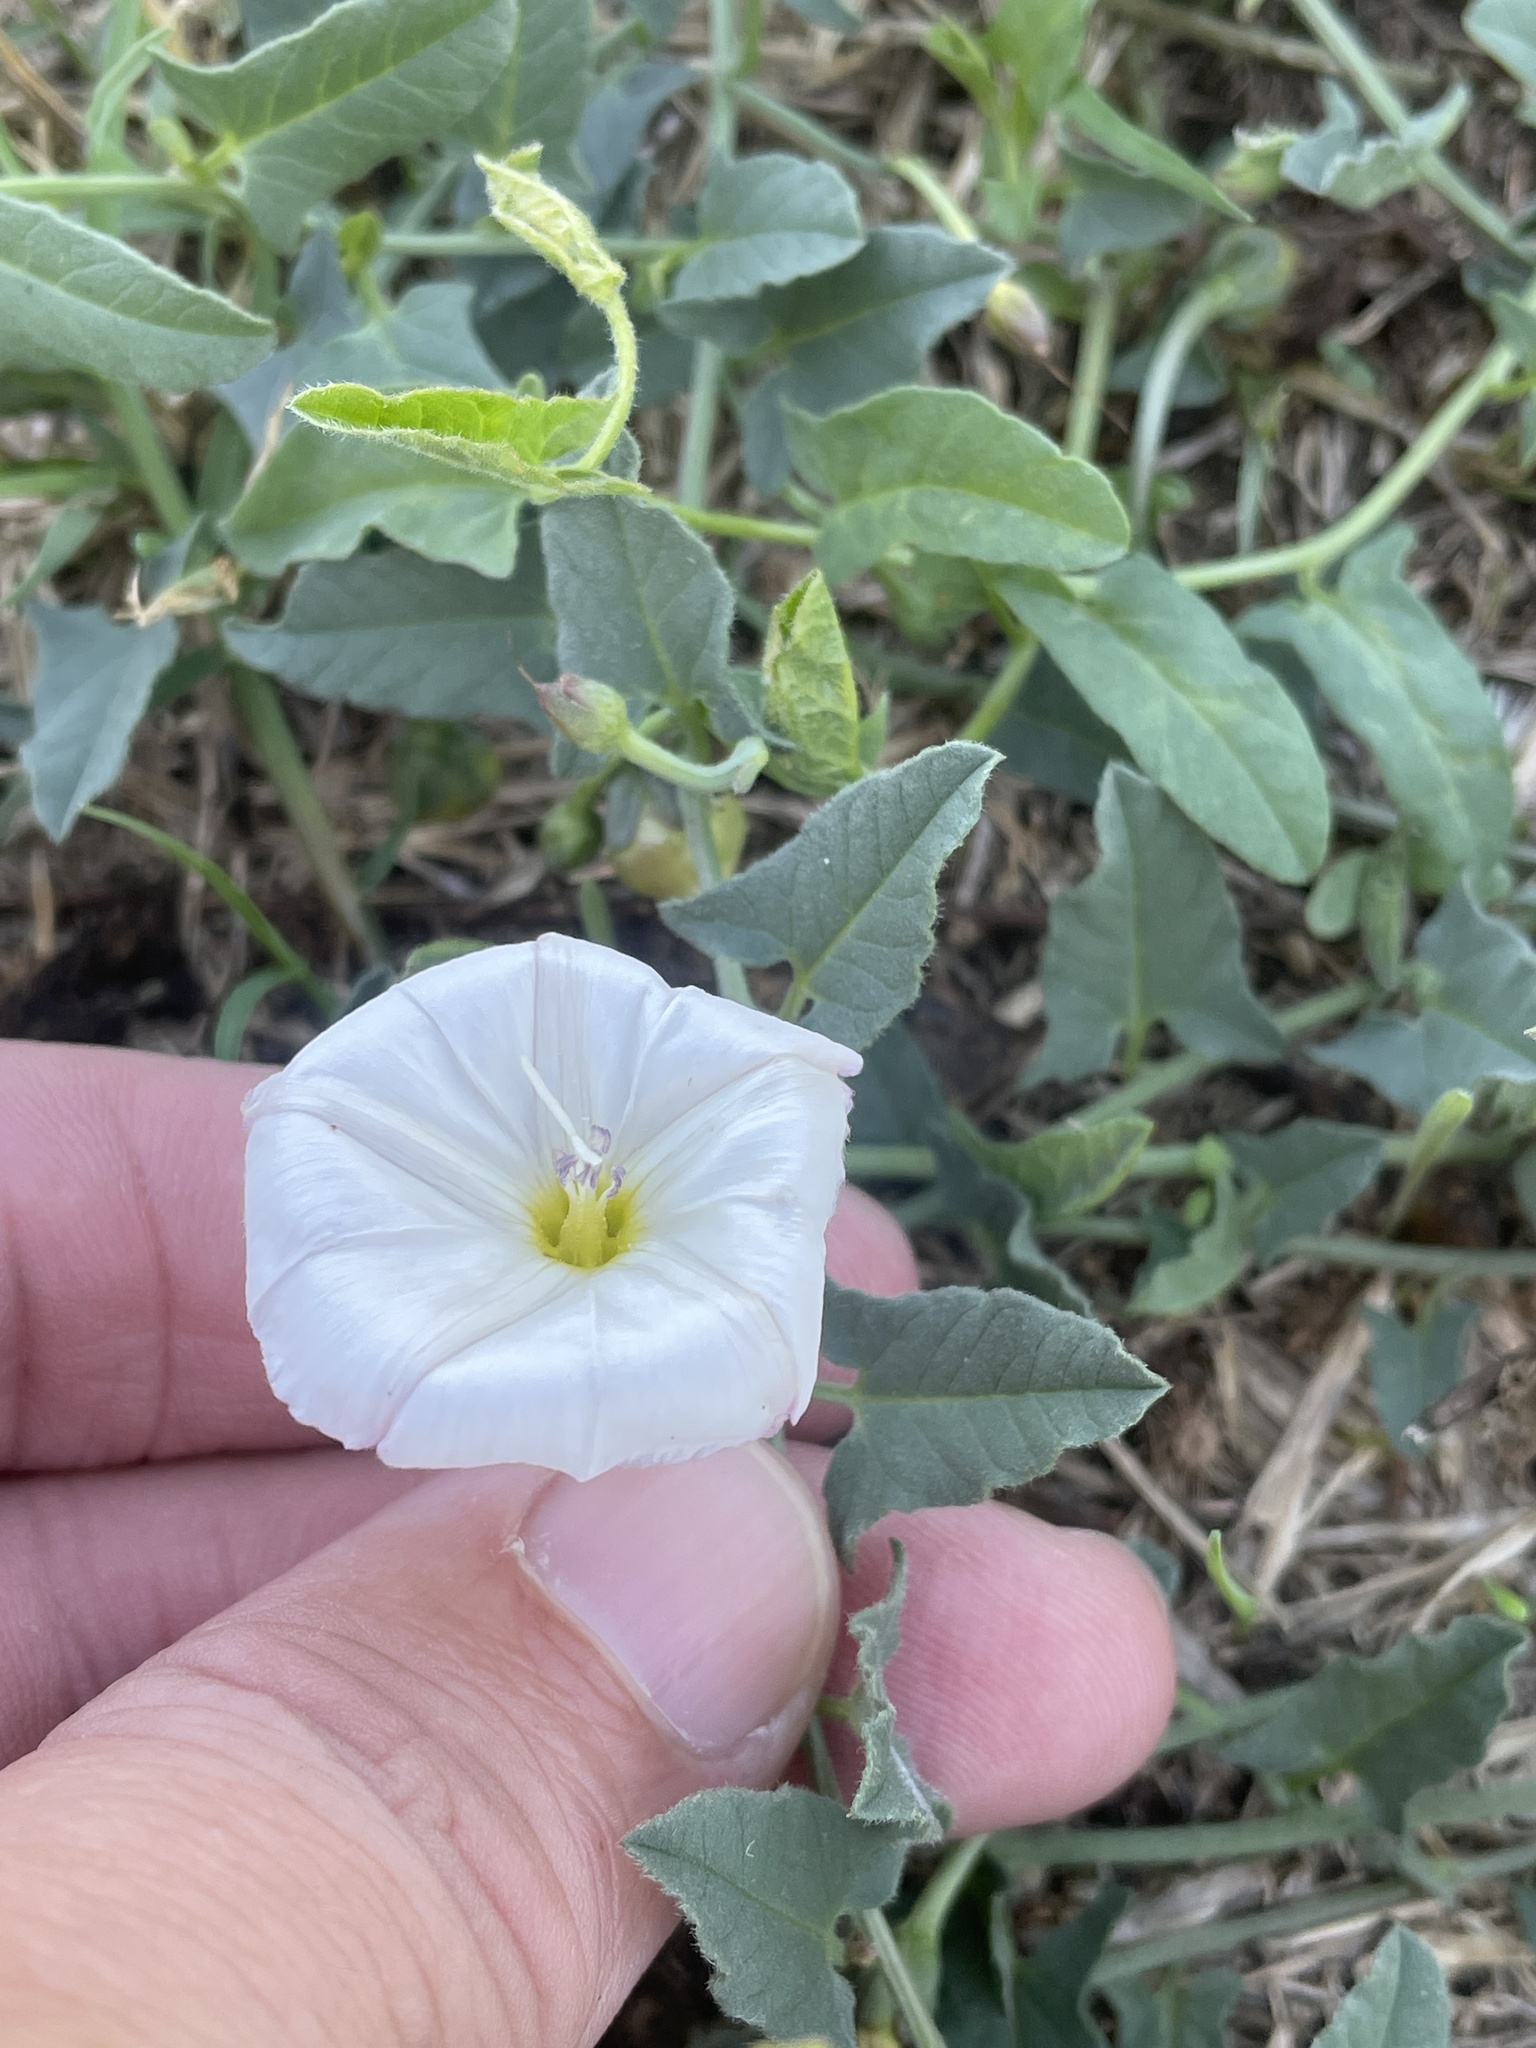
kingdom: Plantae
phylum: Tracheophyta
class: Magnoliopsida
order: Solanales
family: Convolvulaceae
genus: Convolvulus
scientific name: Convolvulus arvensis
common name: Field bindweed
